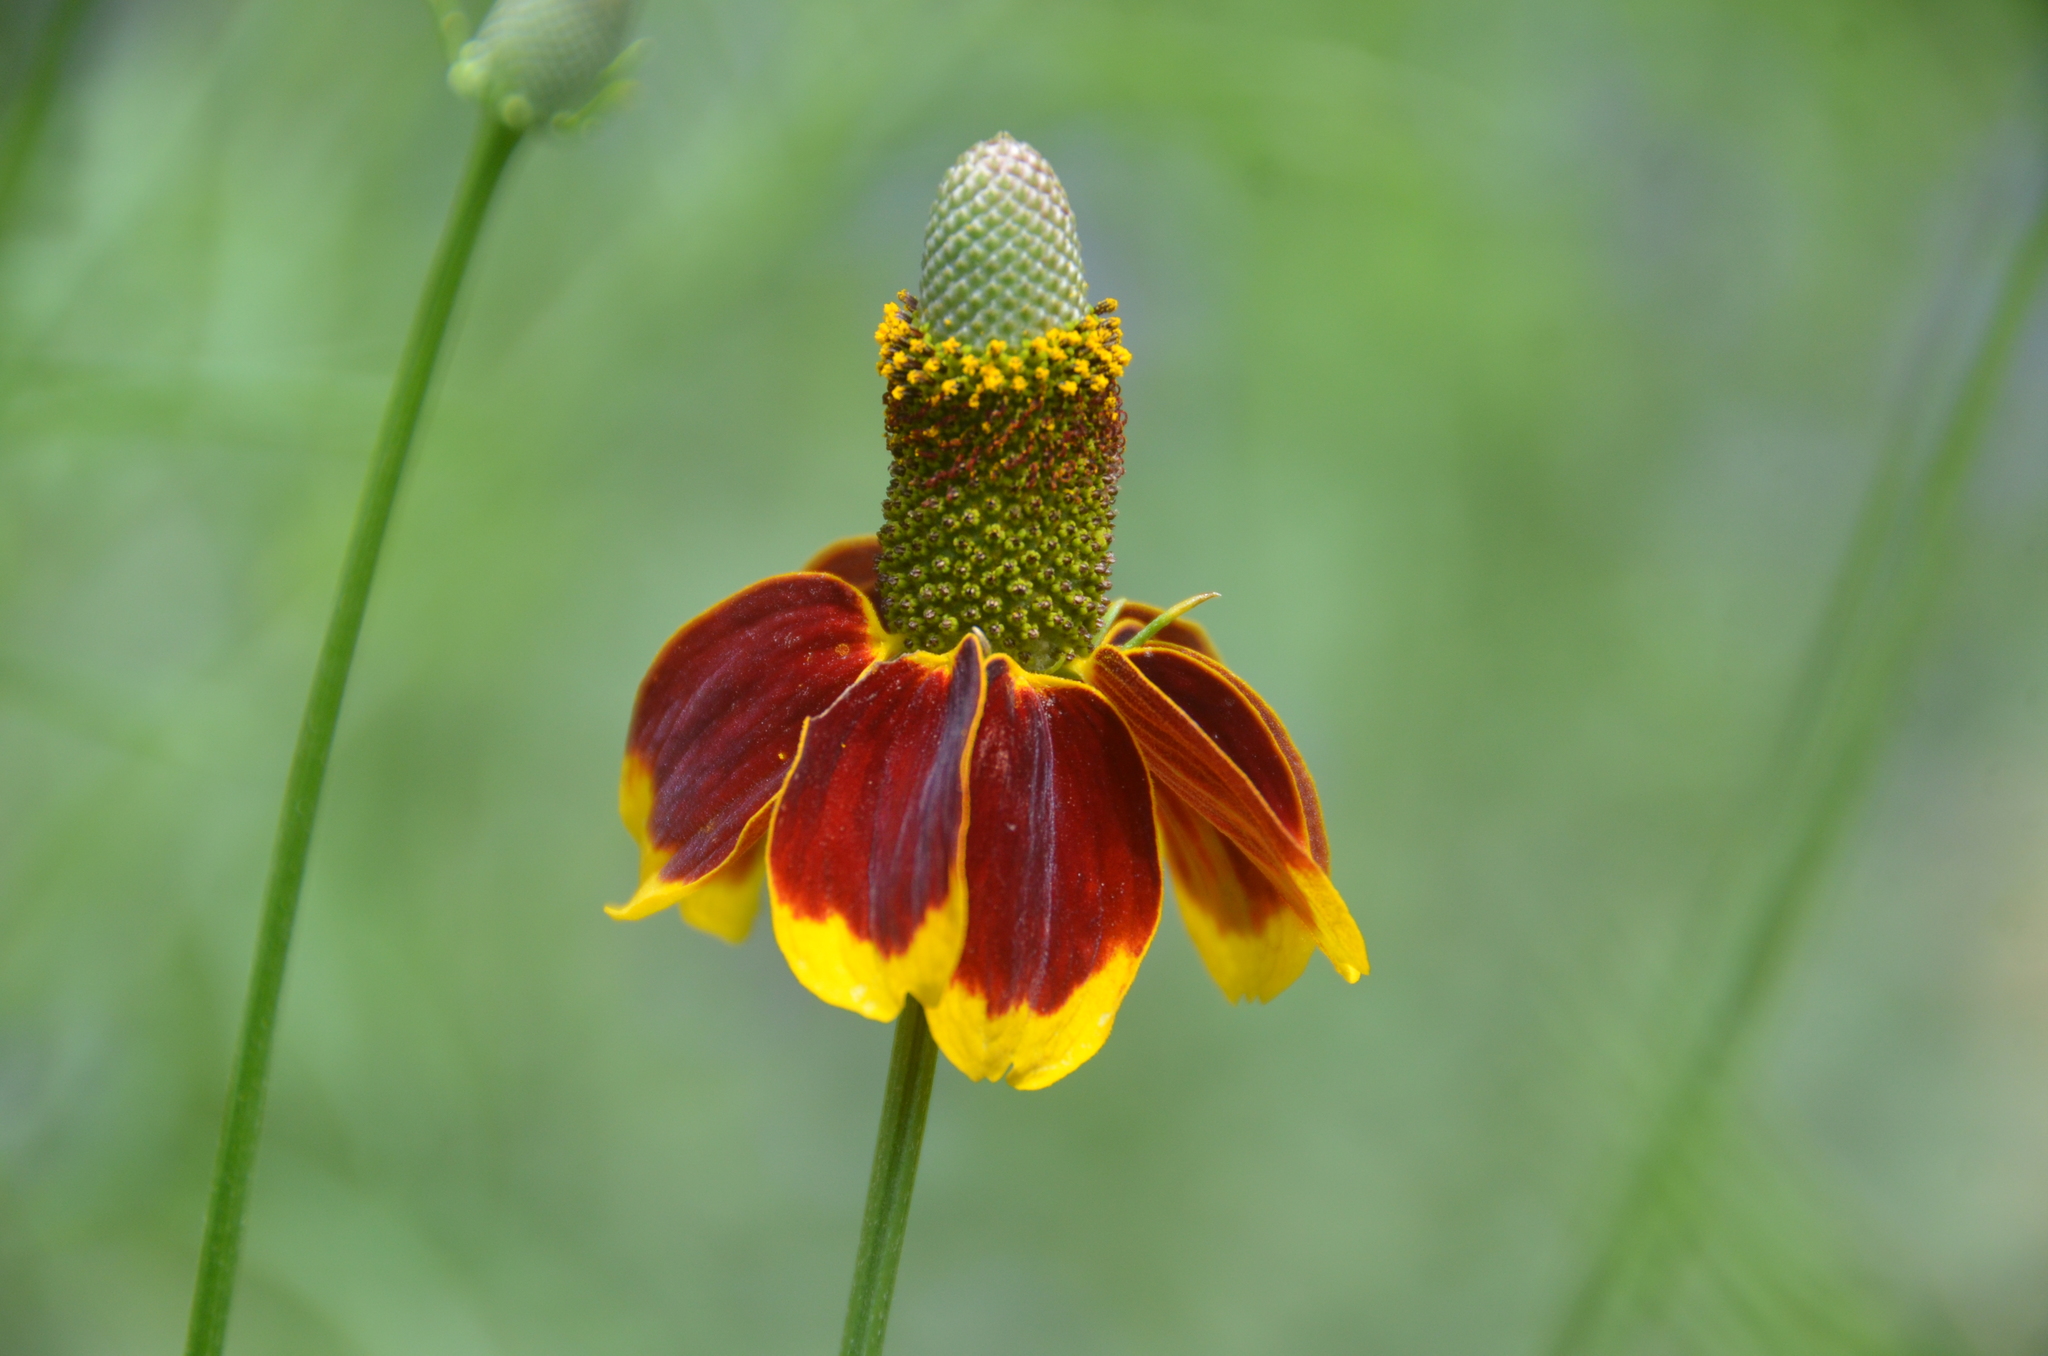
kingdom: Plantae
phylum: Tracheophyta
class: Magnoliopsida
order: Asterales
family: Asteraceae
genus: Ratibida
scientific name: Ratibida columnifera
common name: Prairie coneflower
